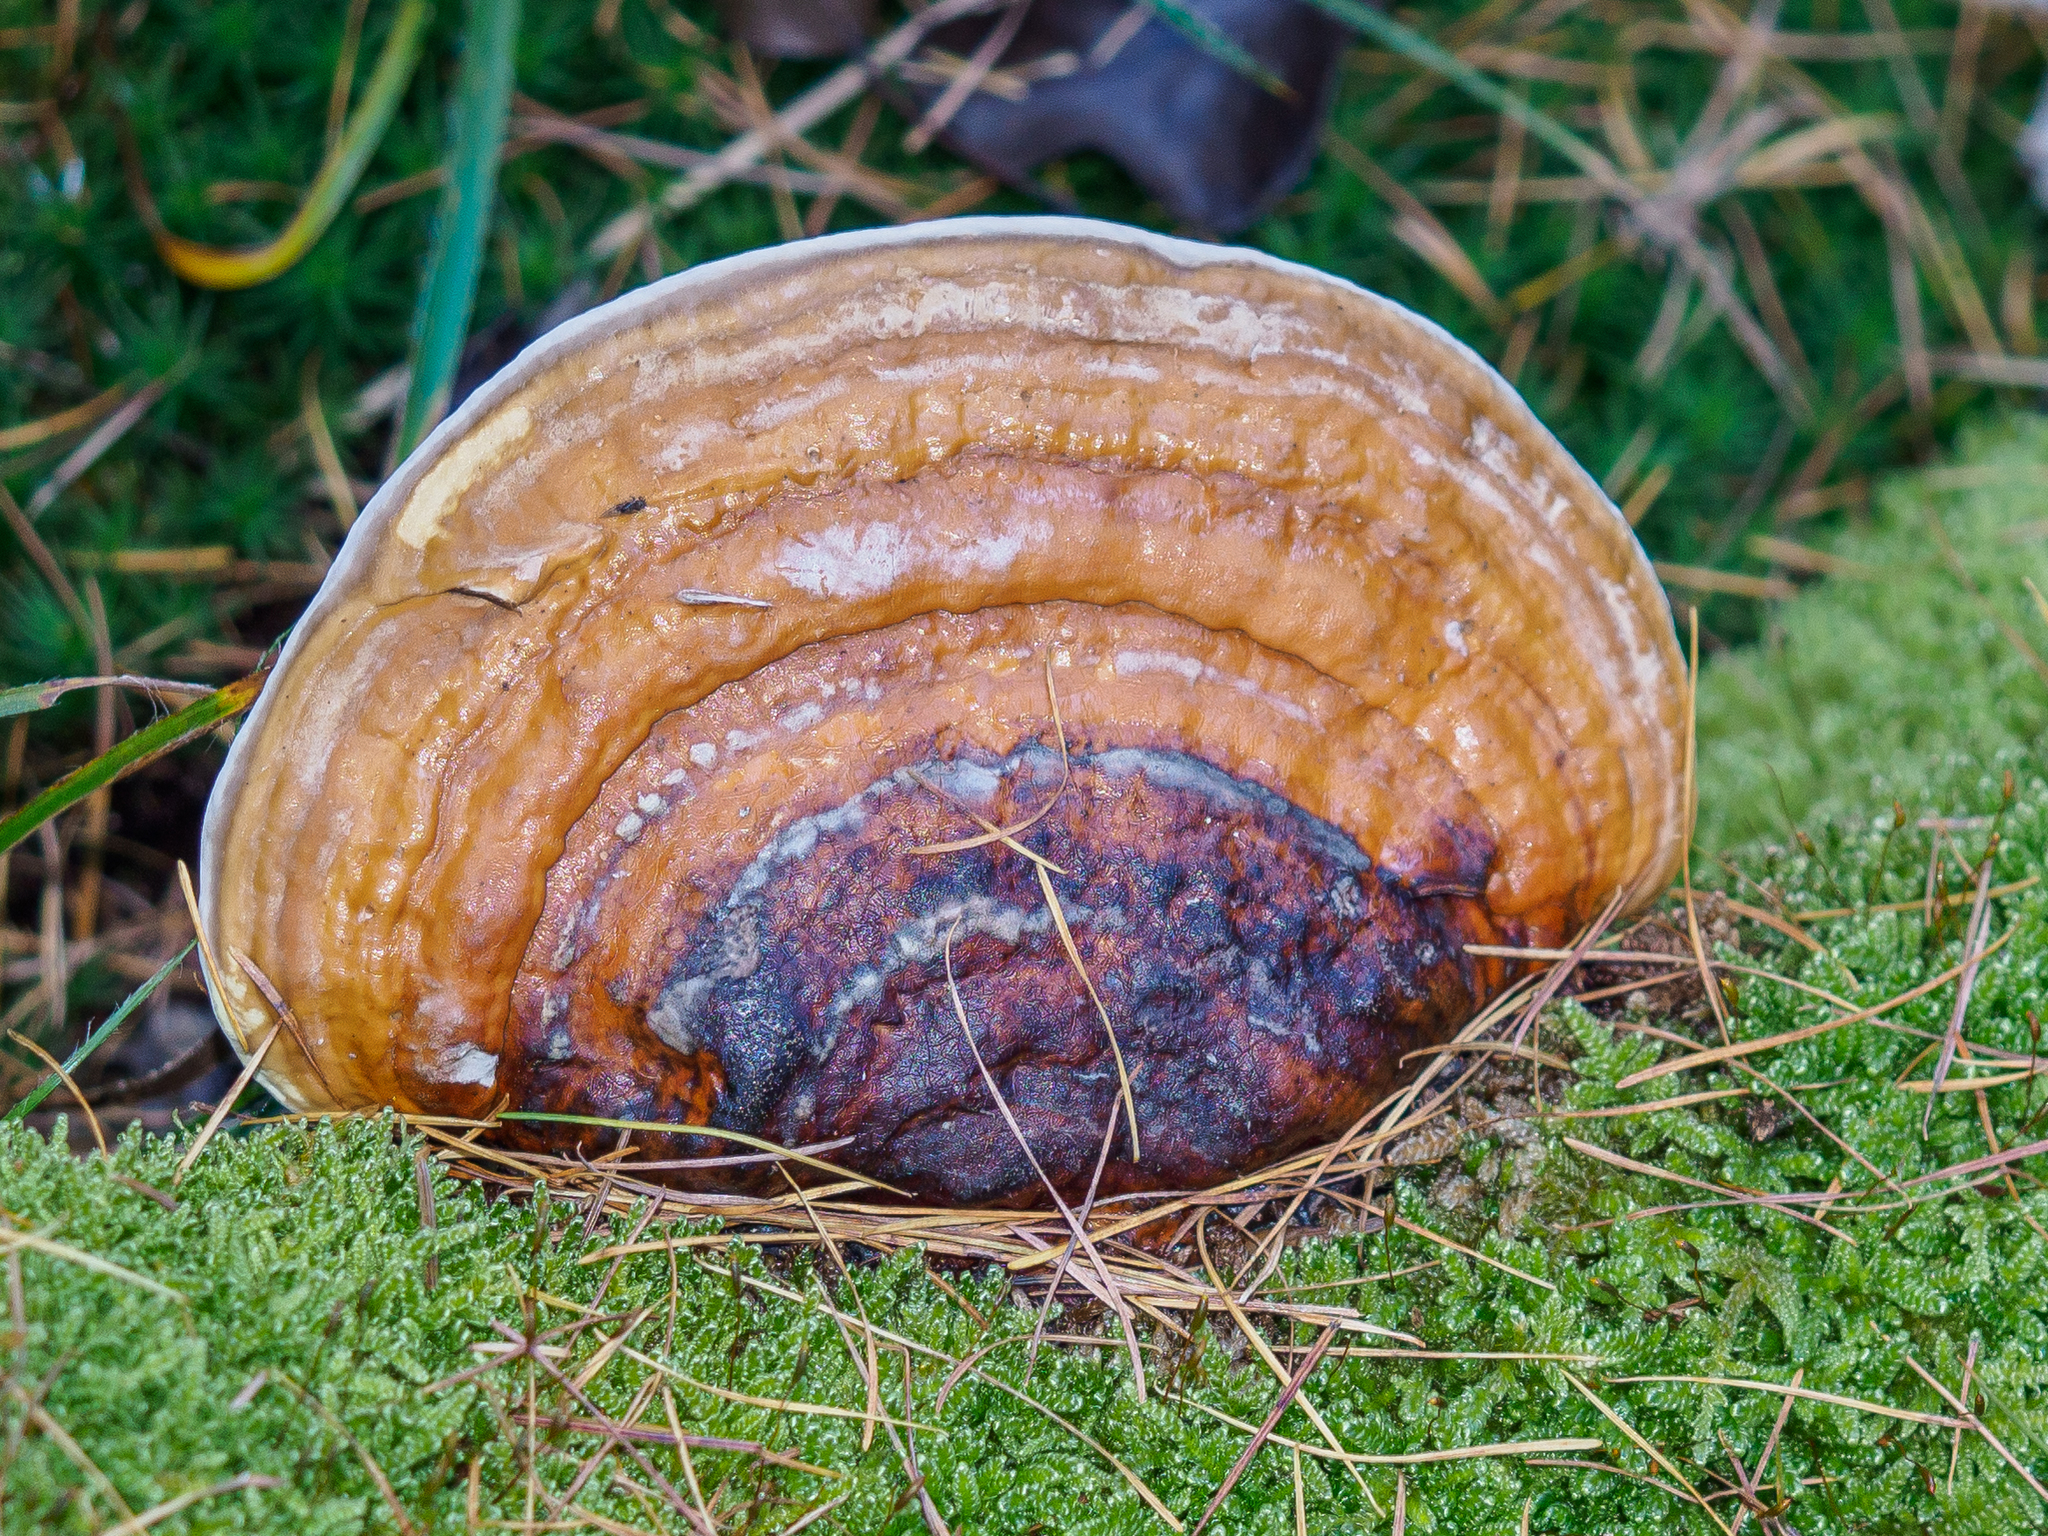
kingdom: Fungi
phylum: Basidiomycota
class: Agaricomycetes
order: Polyporales
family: Fomitopsidaceae
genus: Fomitopsis
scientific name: Fomitopsis pinicola
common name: Red-belted bracket
